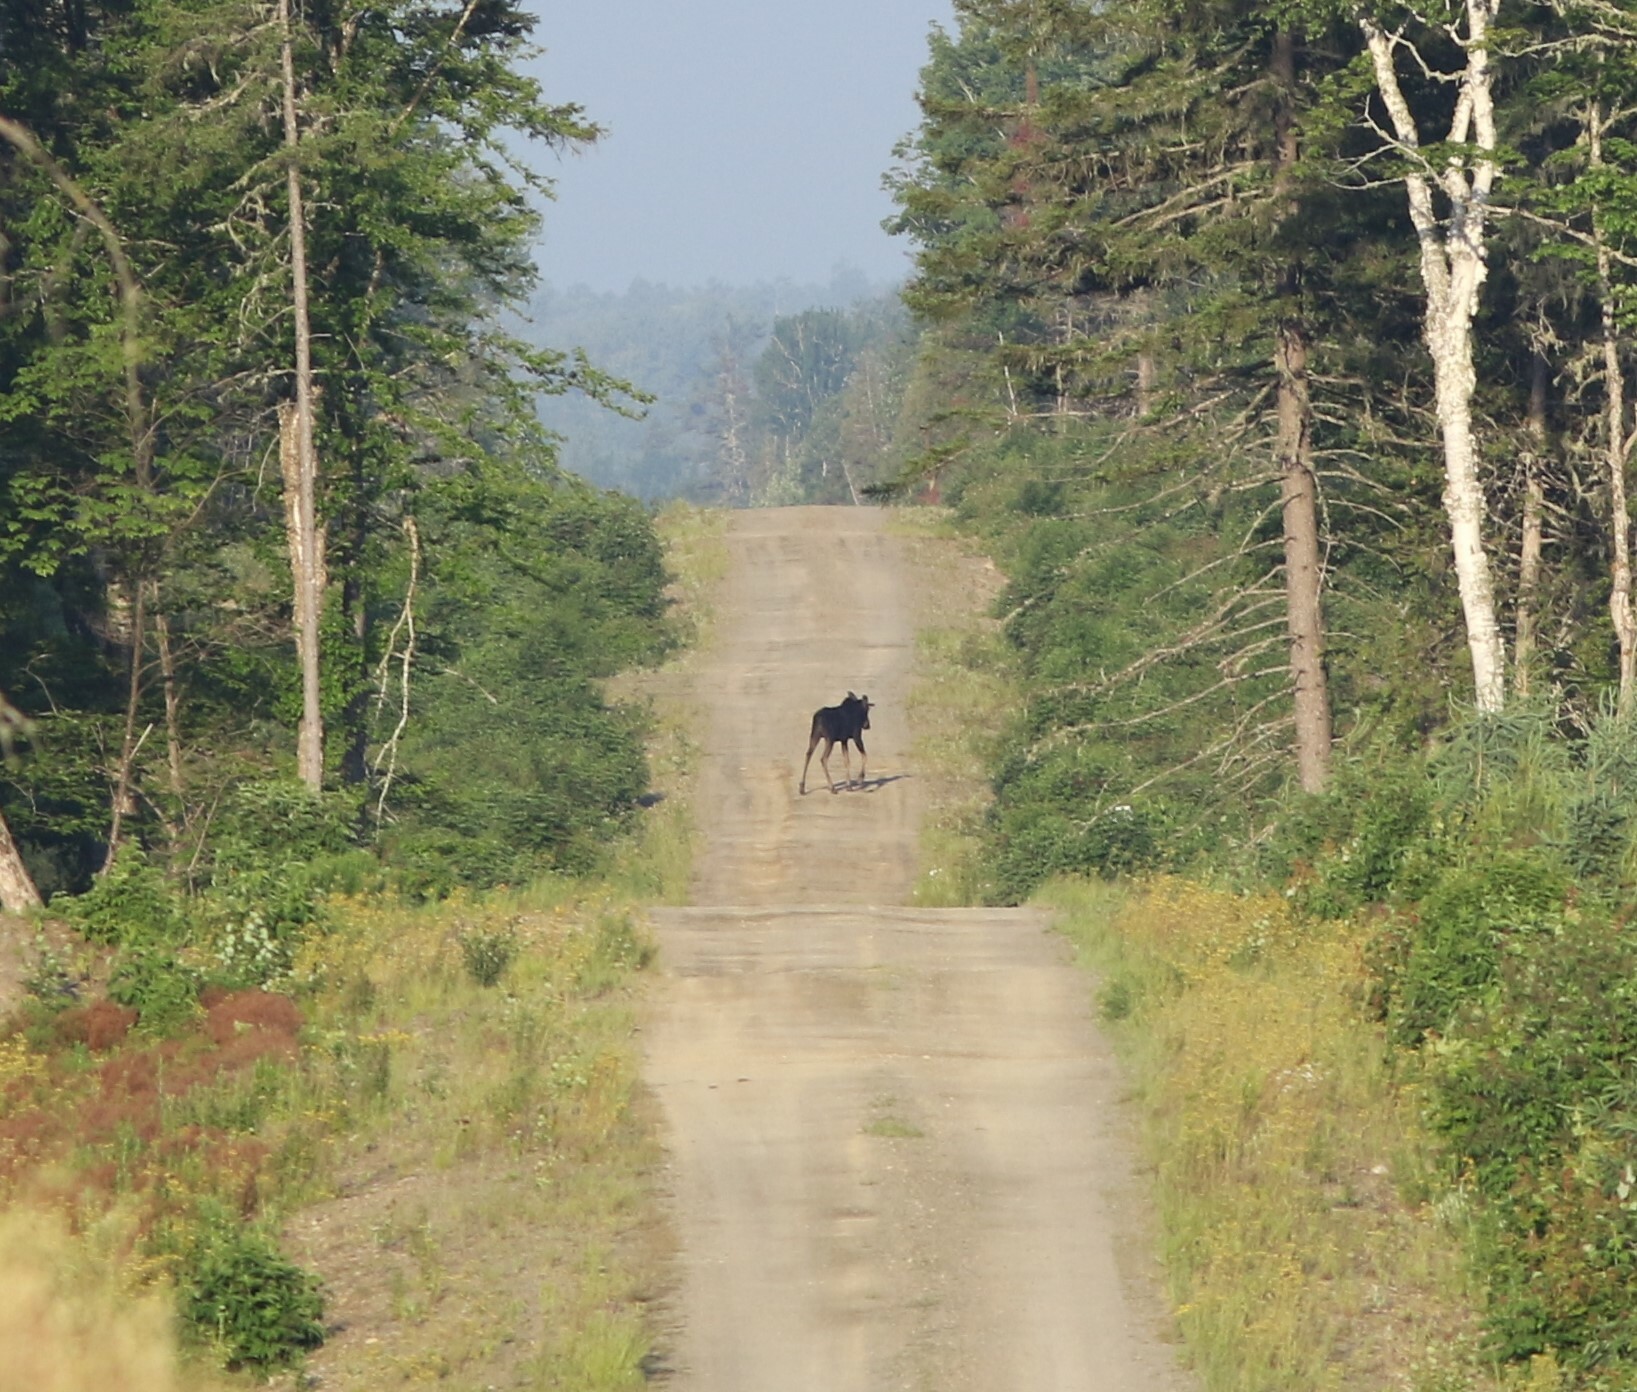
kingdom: Animalia
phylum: Chordata
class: Mammalia
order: Artiodactyla
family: Cervidae
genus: Alces
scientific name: Alces alces
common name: Moose
